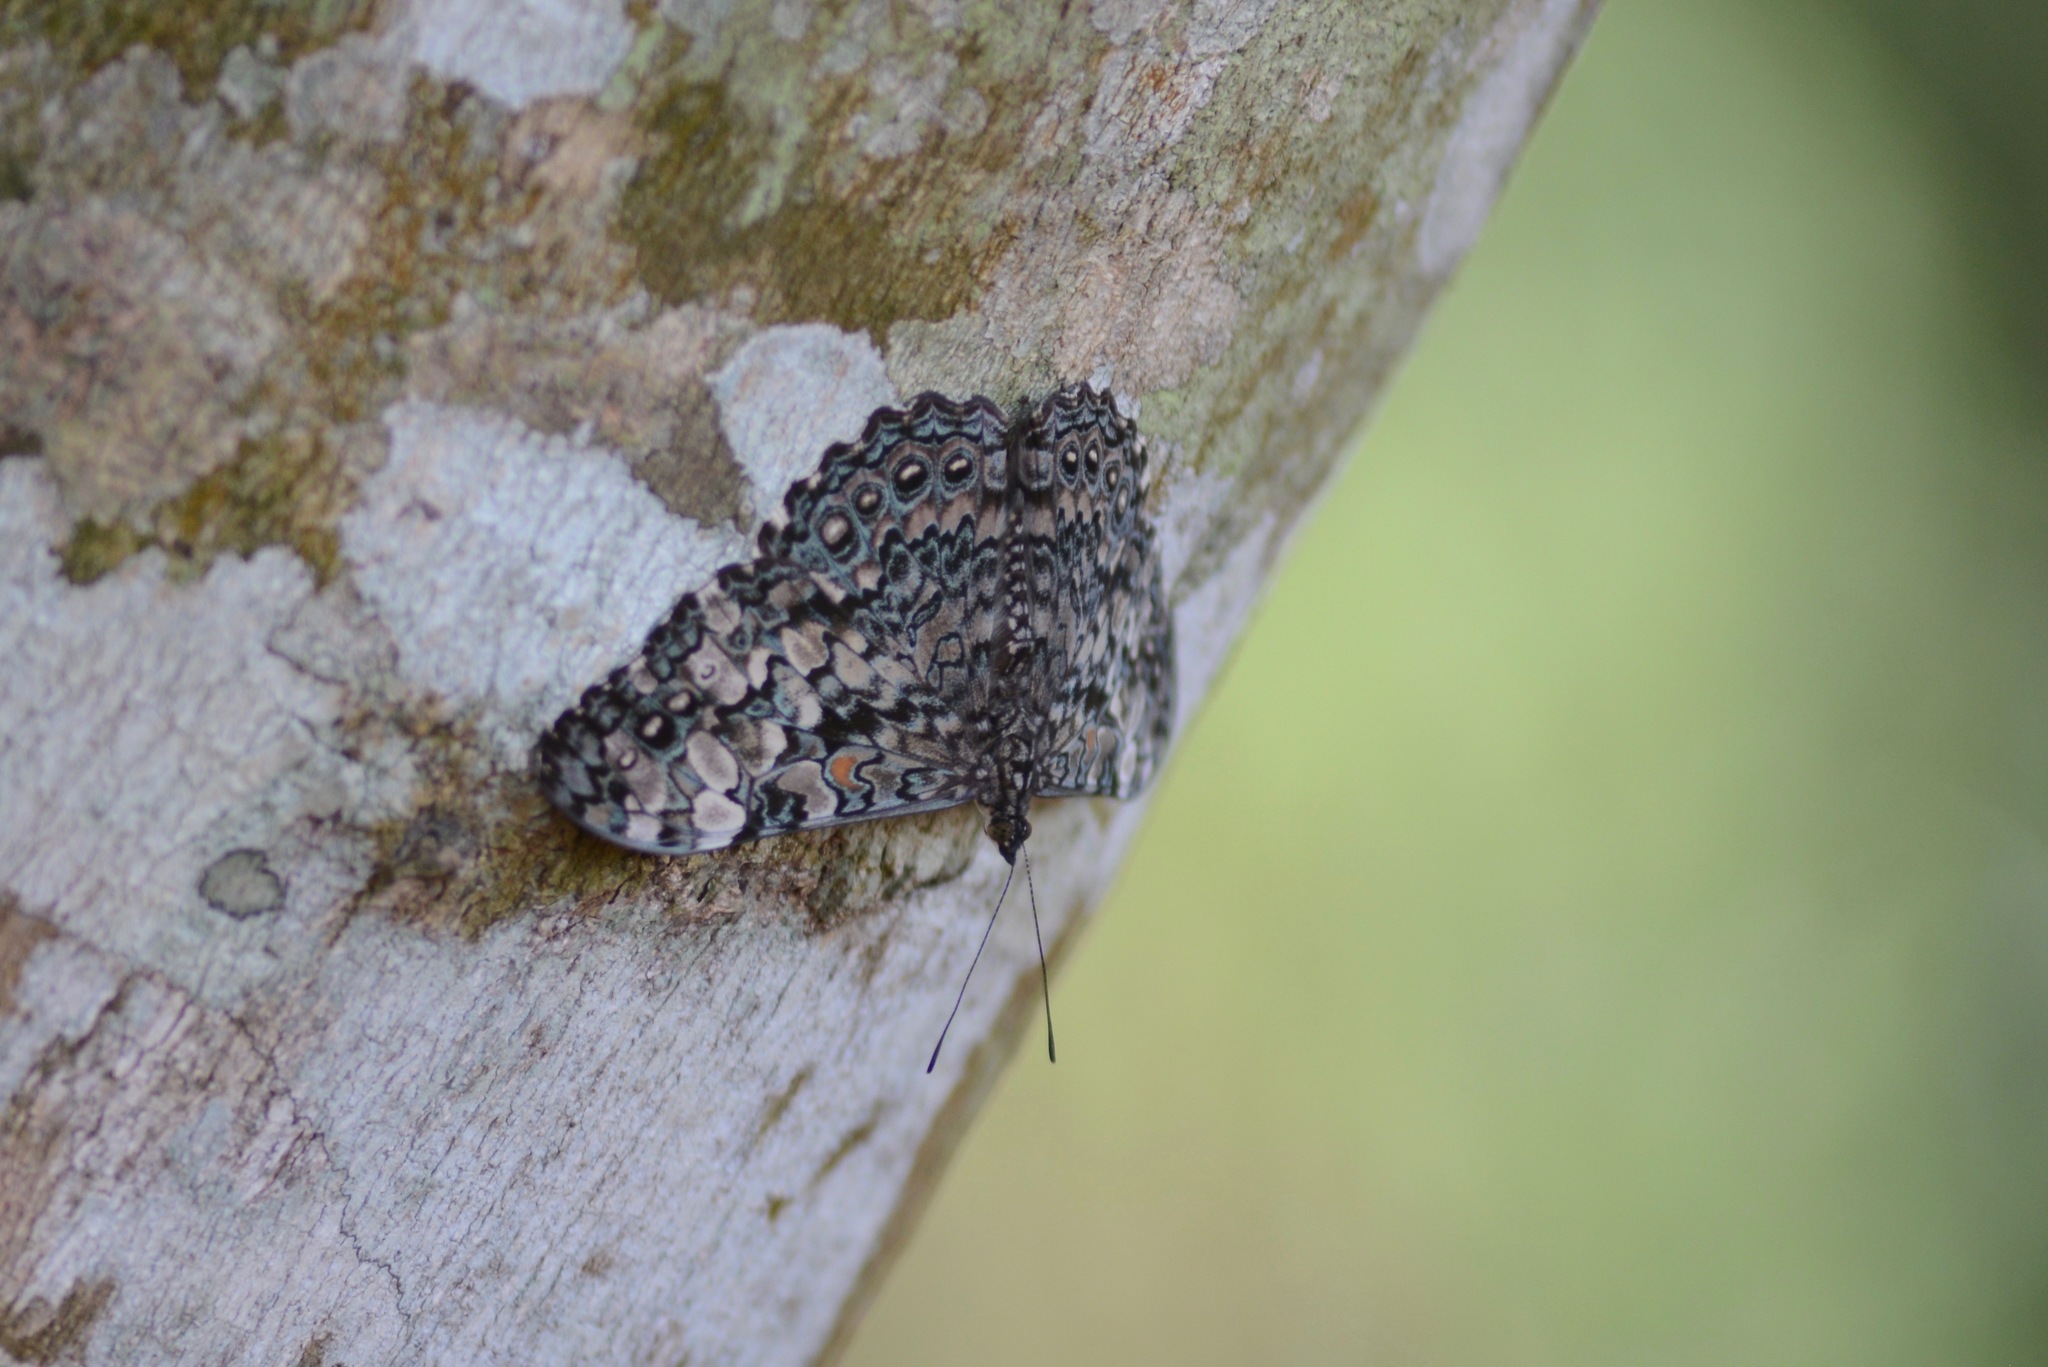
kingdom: Animalia
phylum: Arthropoda
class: Insecta
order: Lepidoptera
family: Nymphalidae
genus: Hamadryas
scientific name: Hamadryas epinome
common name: Epinome cracker
